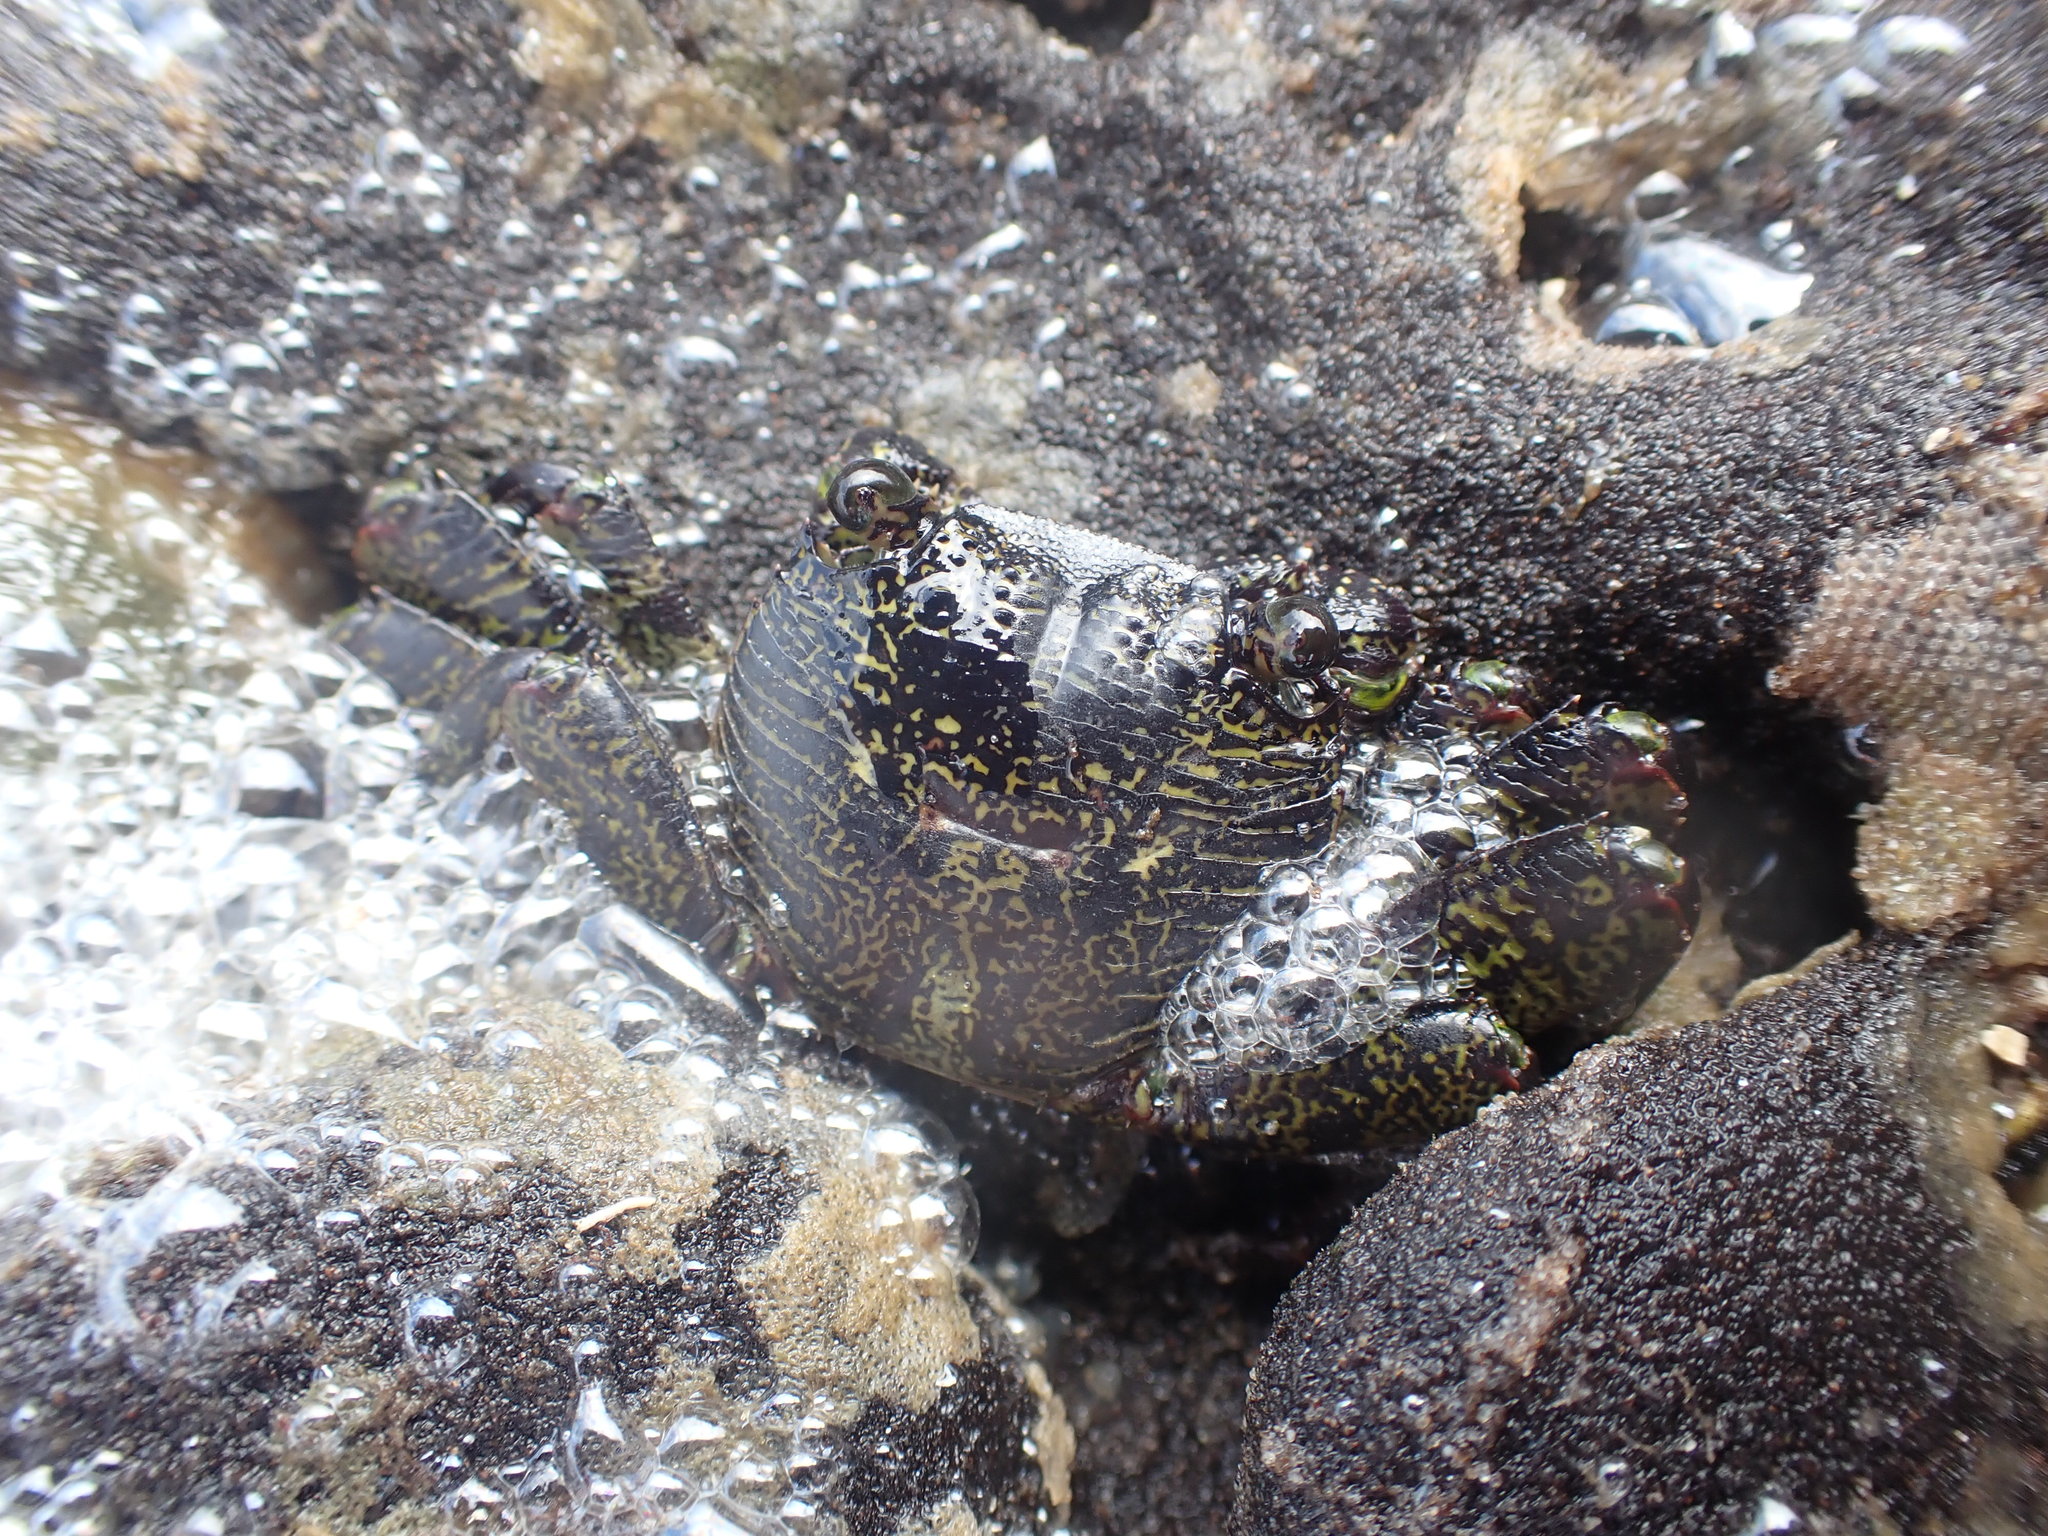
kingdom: Animalia
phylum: Arthropoda
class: Malacostraca
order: Decapoda
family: Grapsidae
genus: Leptograpsus
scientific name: Leptograpsus variegatus
